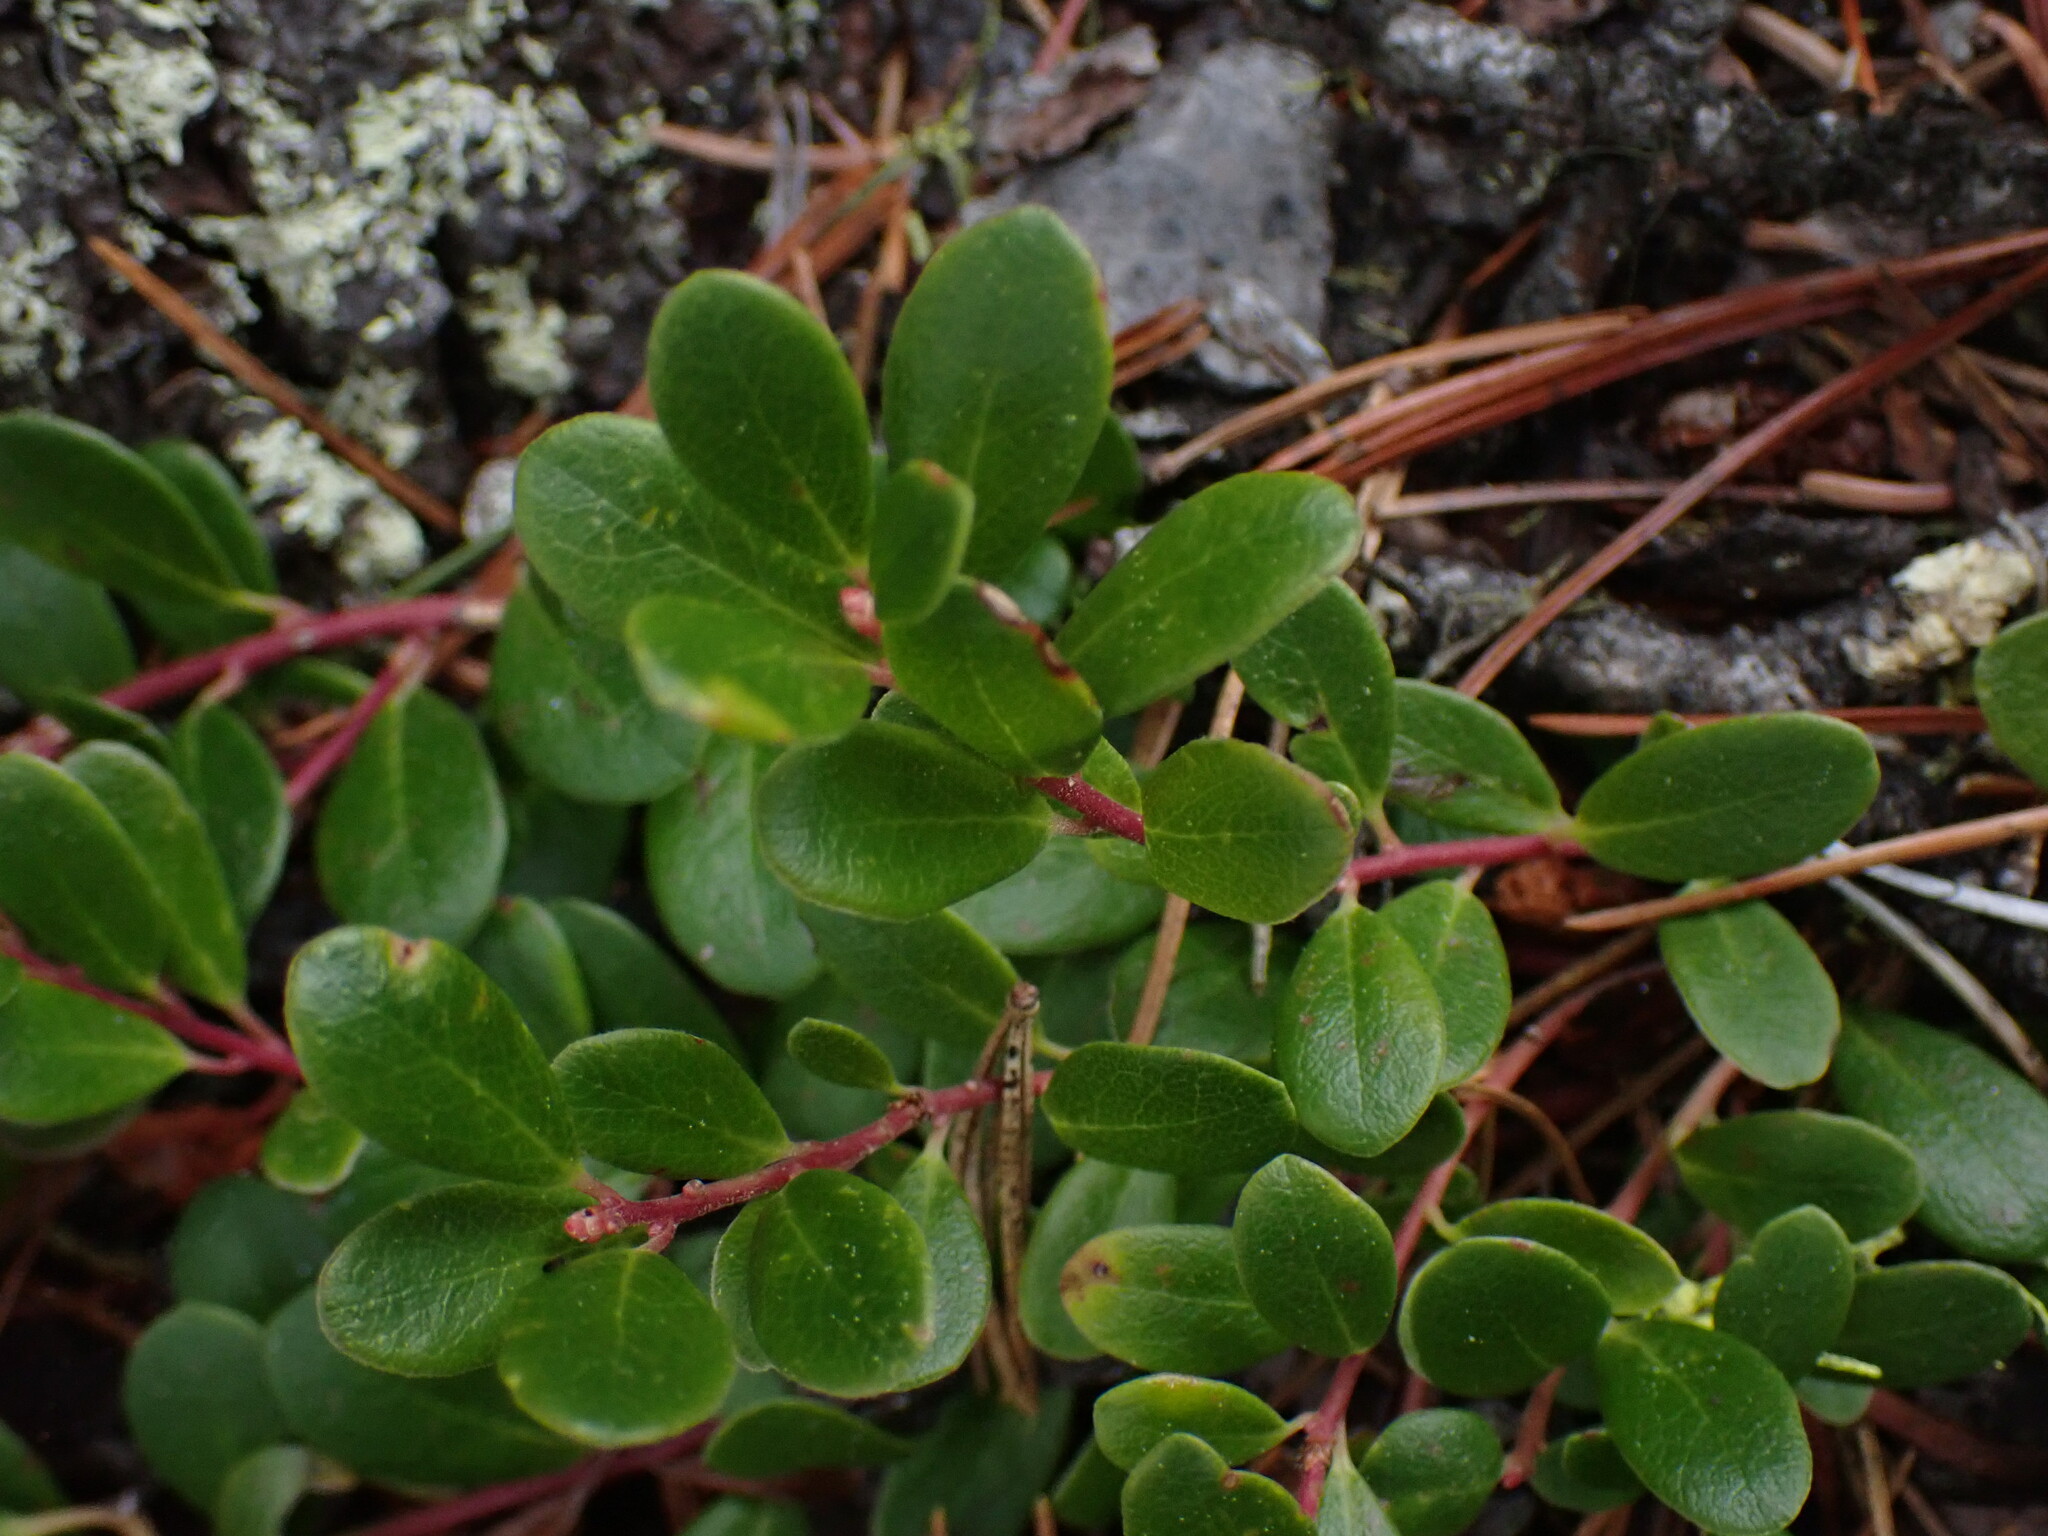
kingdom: Plantae
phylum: Tracheophyta
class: Magnoliopsida
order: Ericales
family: Ericaceae
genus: Arctostaphylos
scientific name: Arctostaphylos uva-ursi
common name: Bearberry
